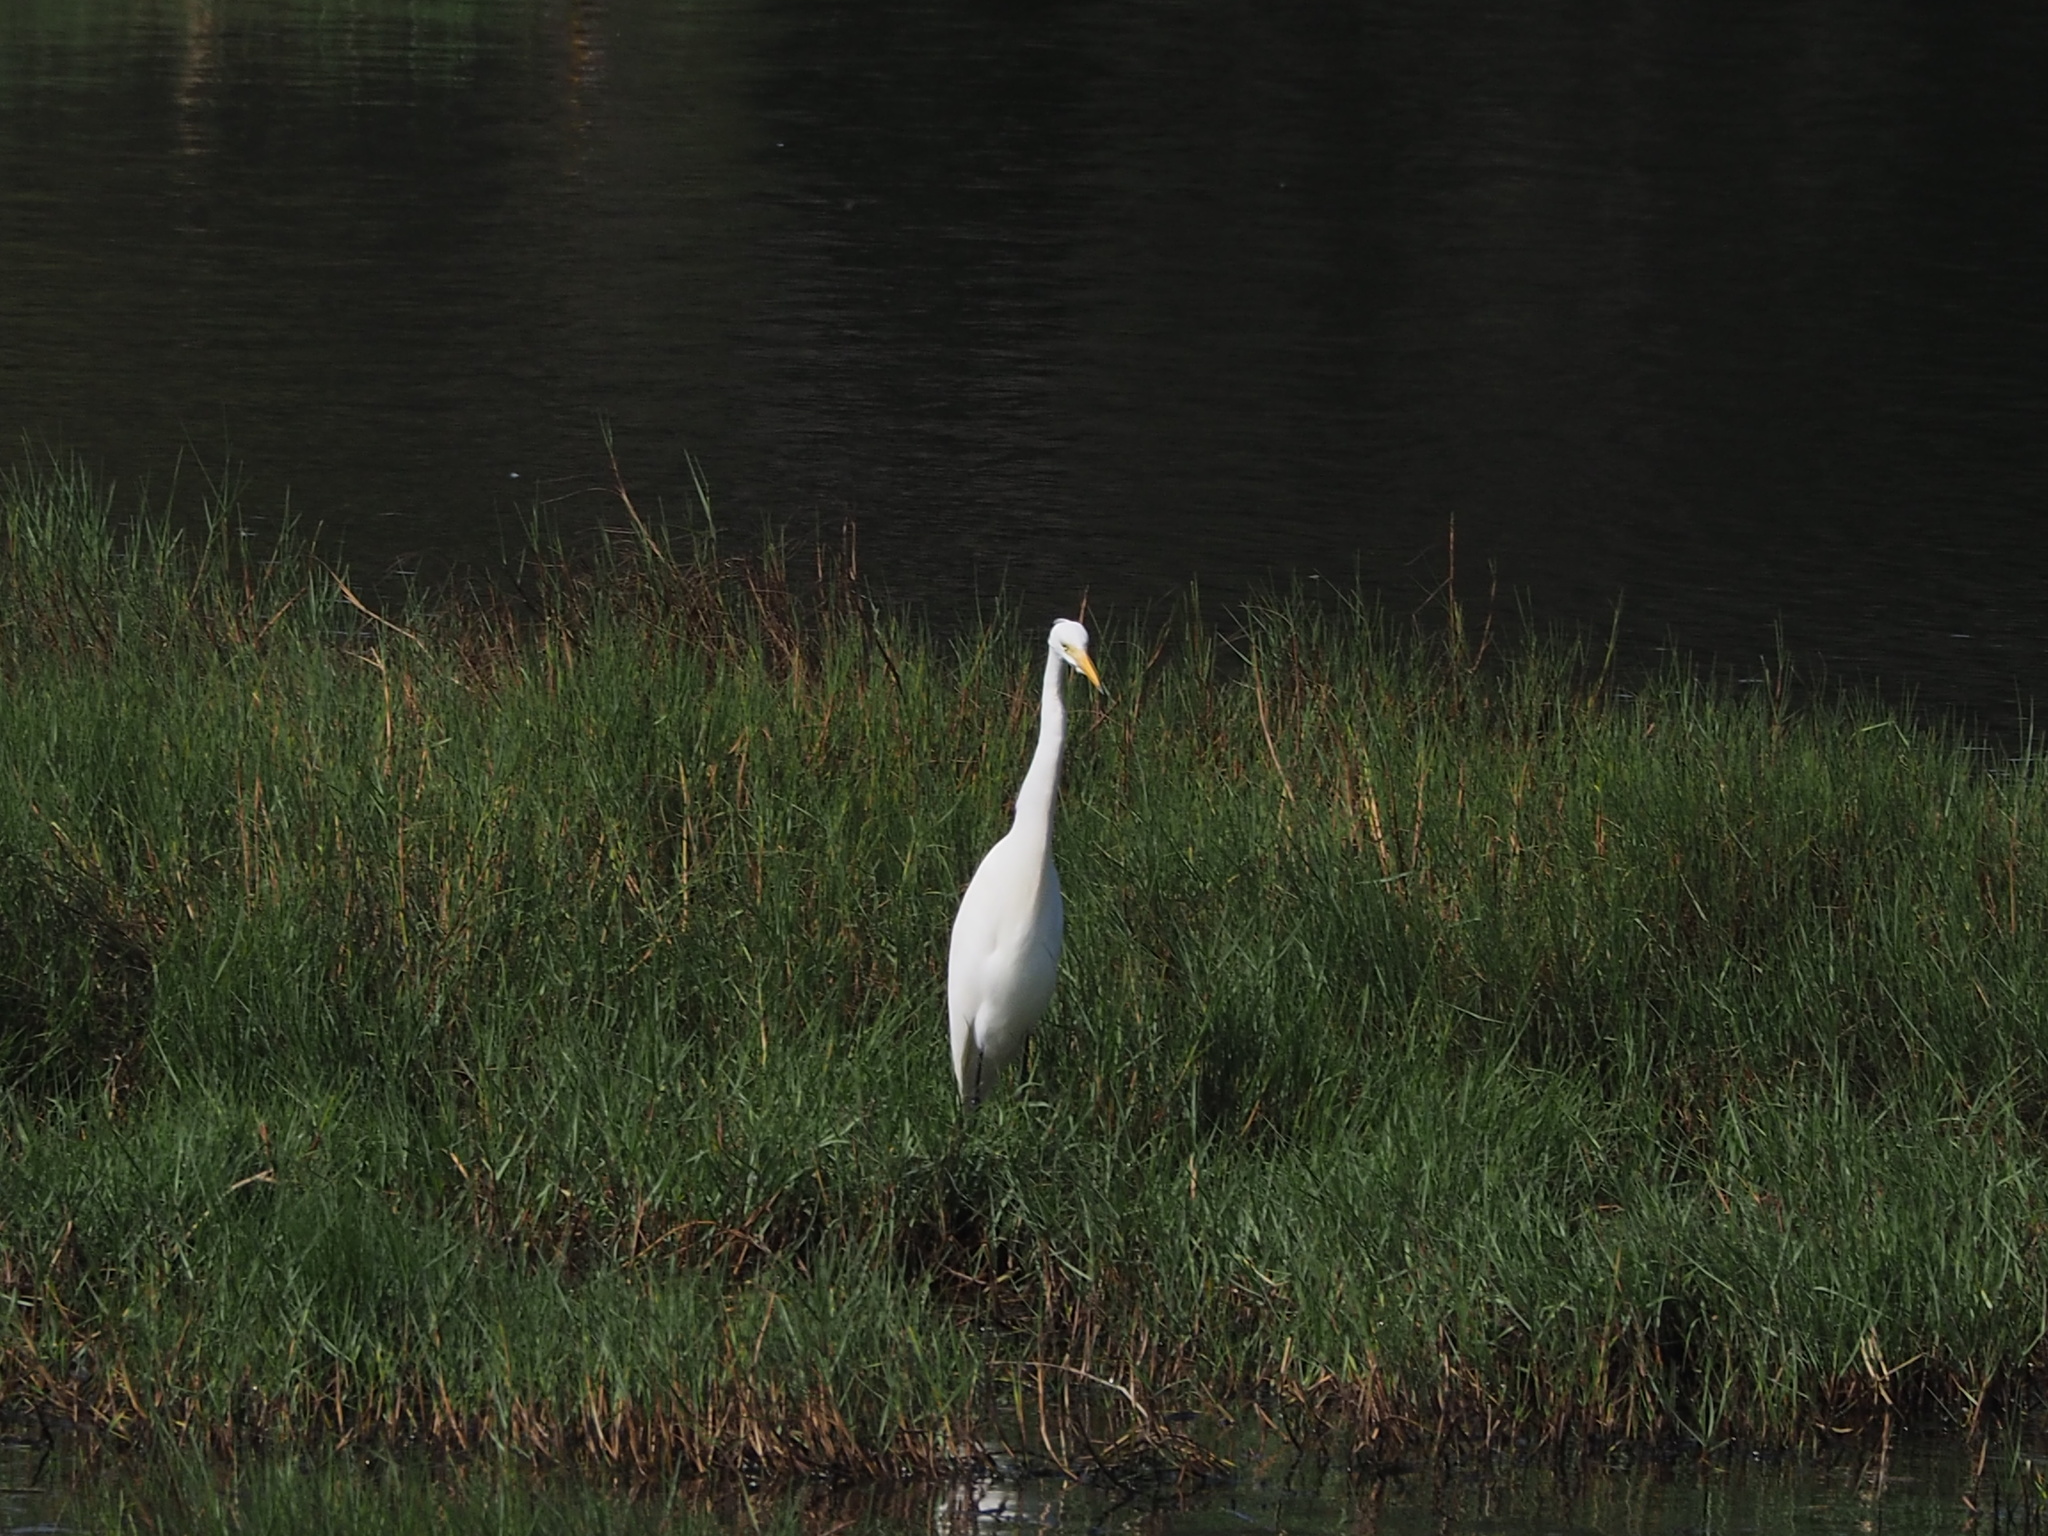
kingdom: Animalia
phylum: Chordata
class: Aves
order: Pelecaniformes
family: Ardeidae
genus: Egretta
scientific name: Egretta intermedia
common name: Intermediate egret
